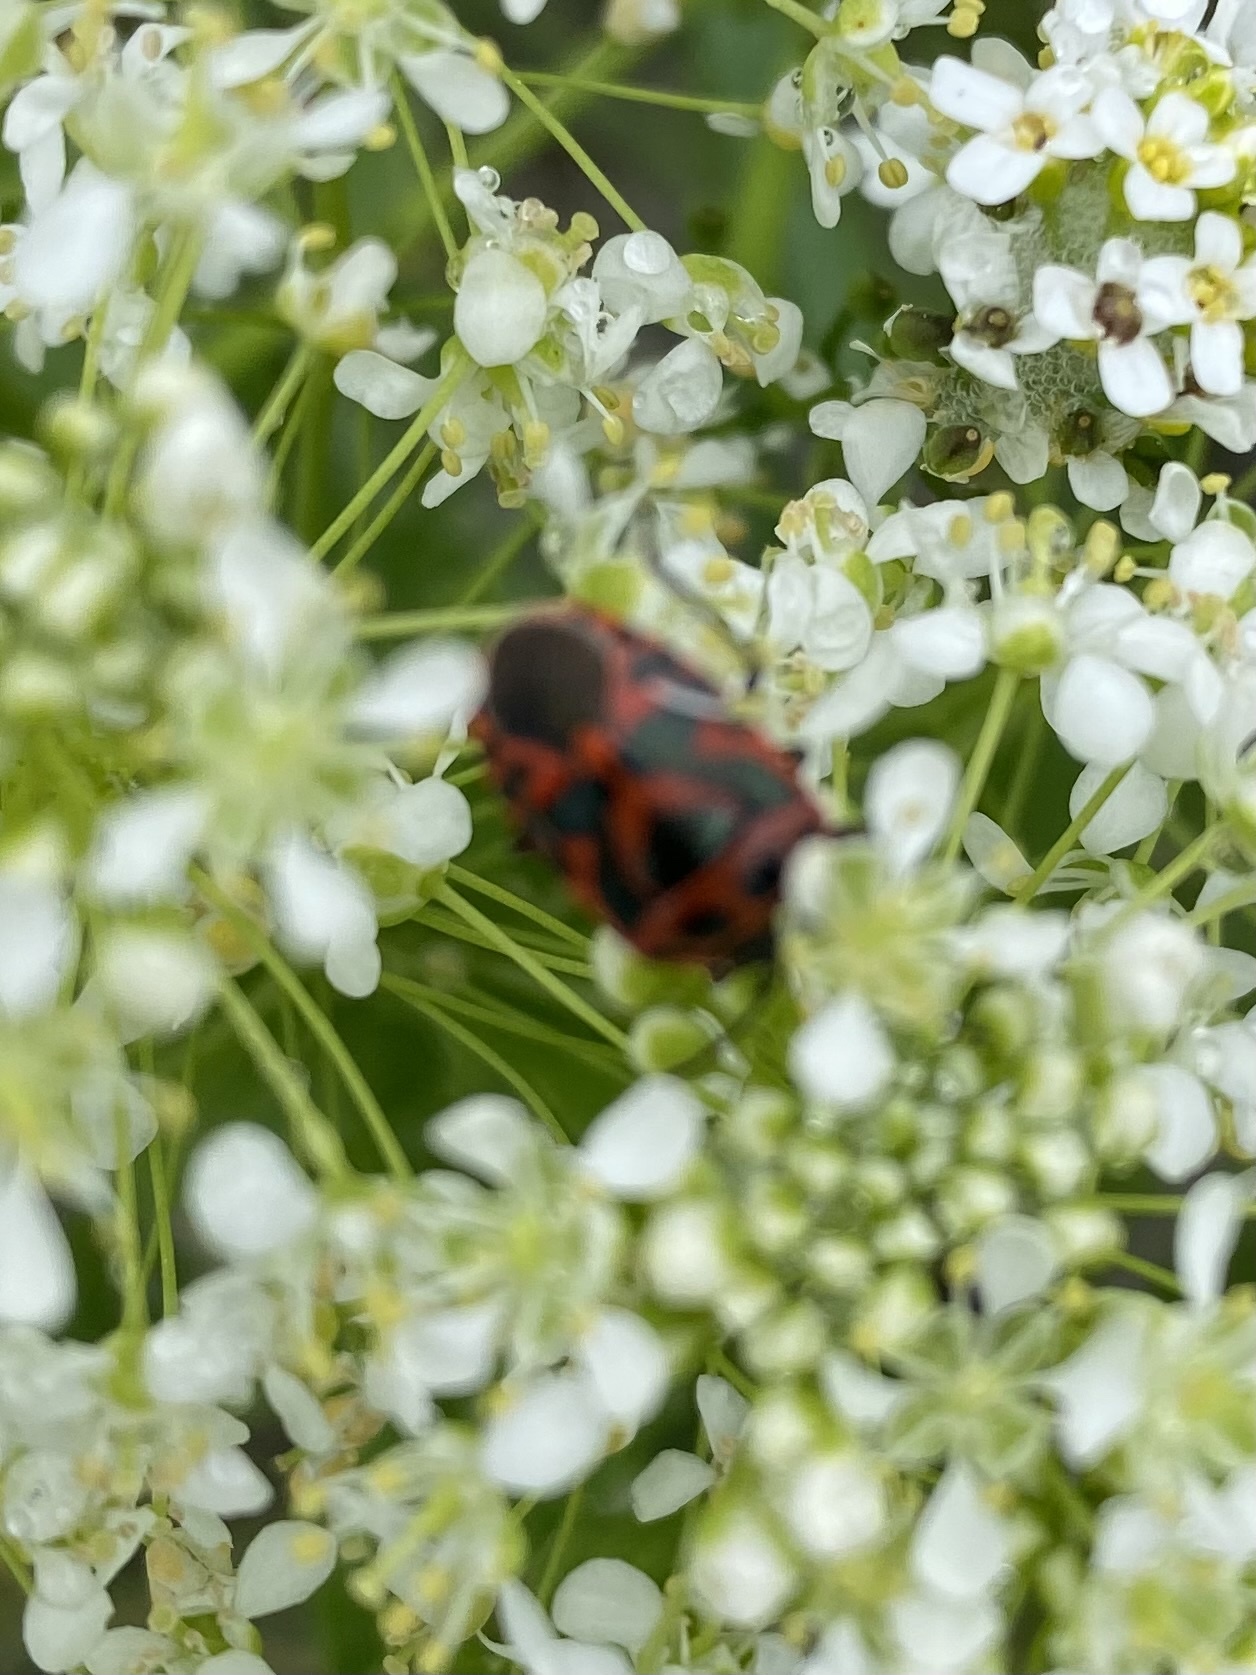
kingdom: Animalia
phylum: Arthropoda
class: Insecta
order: Hemiptera
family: Pentatomidae
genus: Eurydema
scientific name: Eurydema ornata
